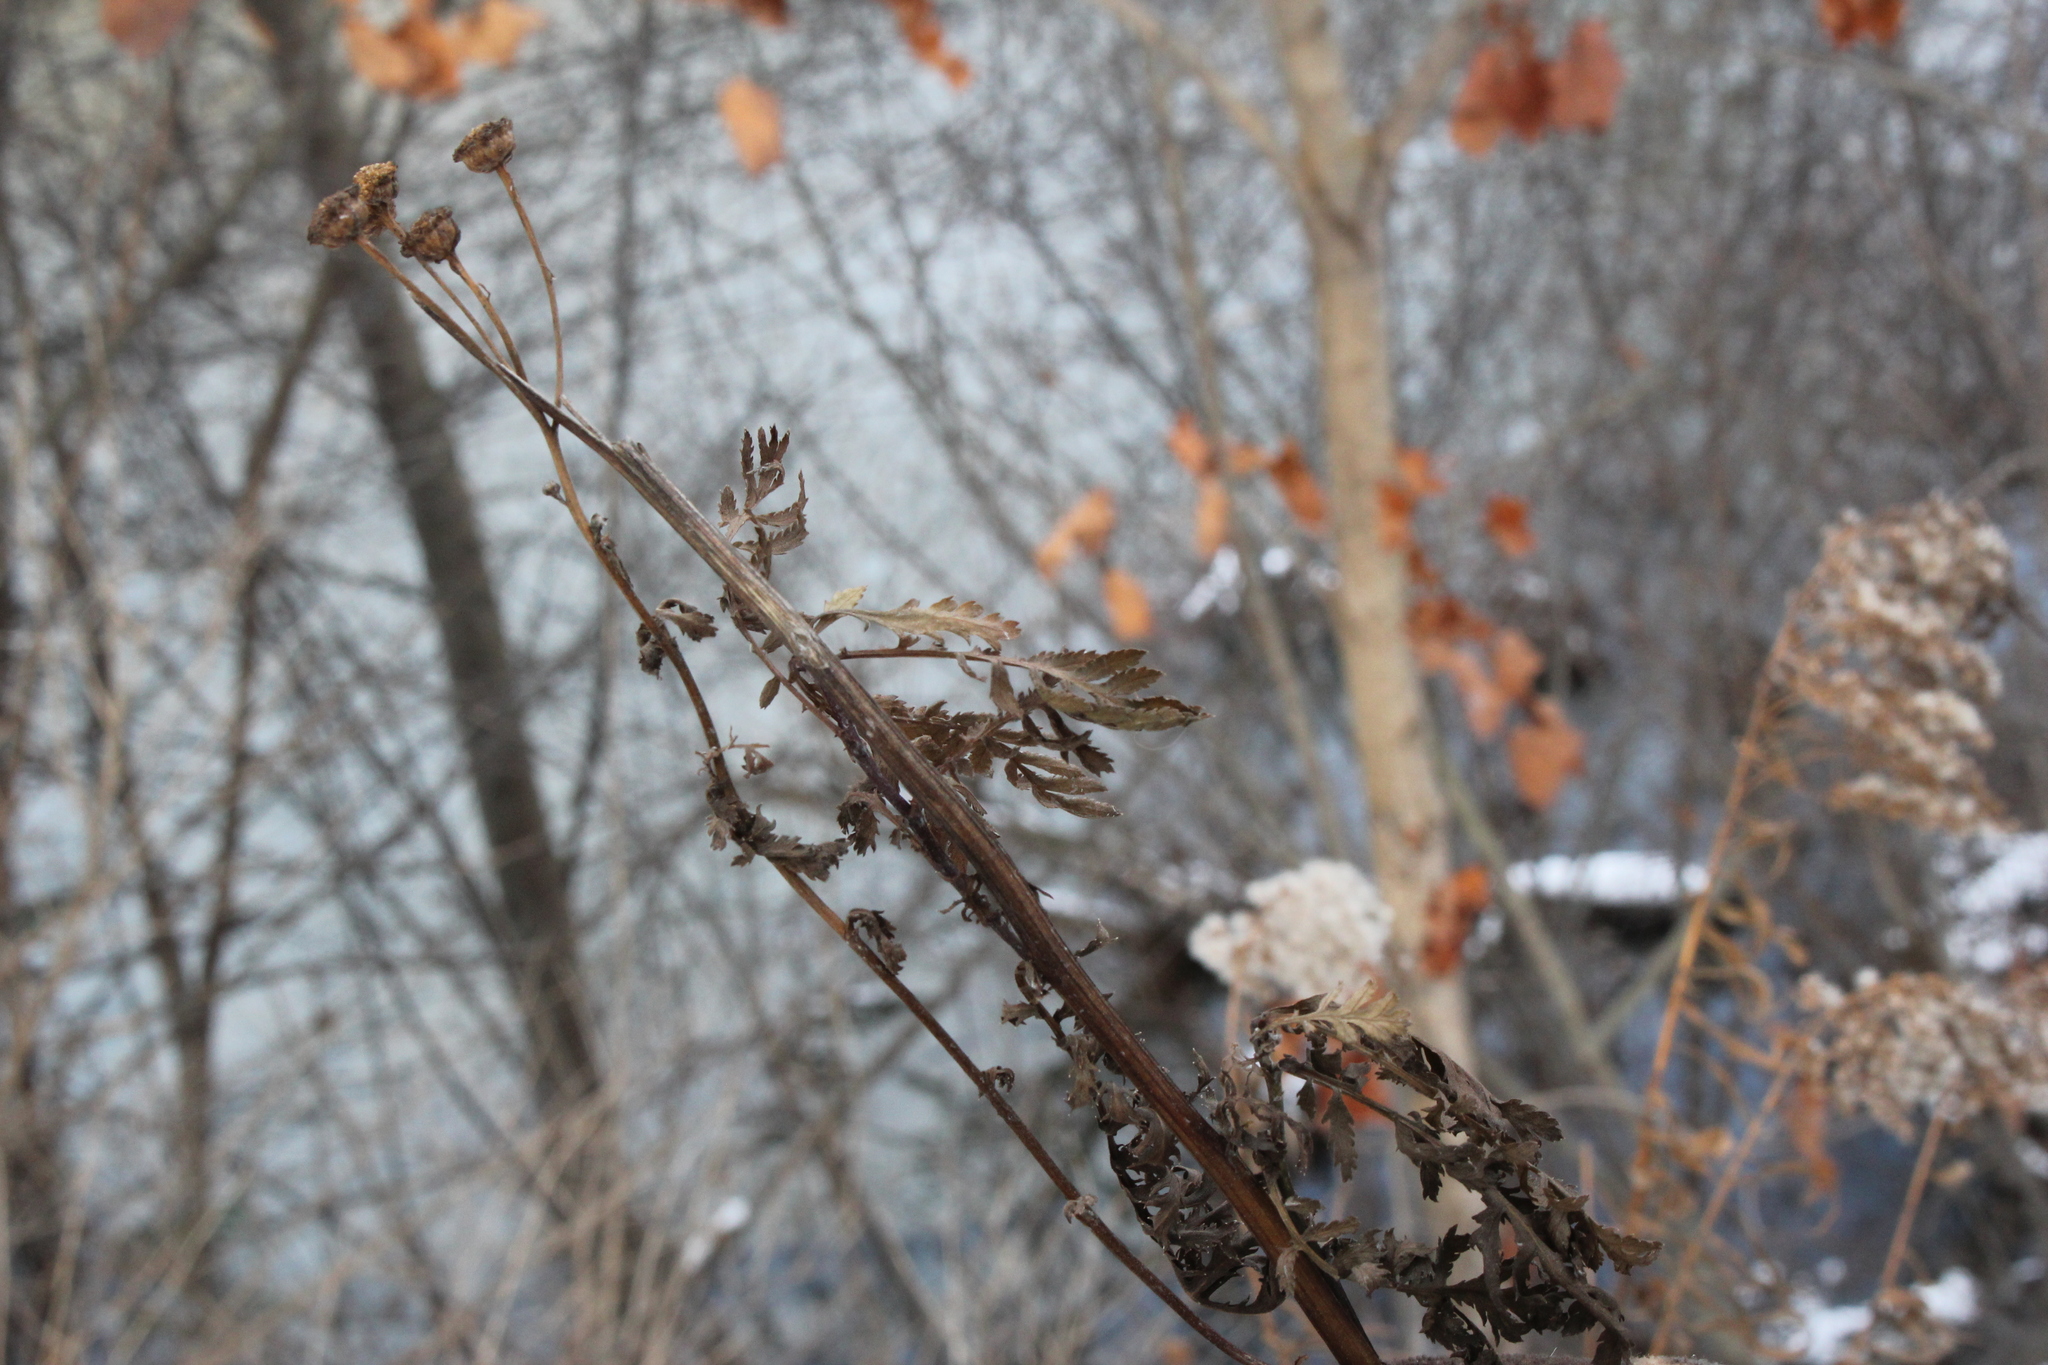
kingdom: Plantae
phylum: Tracheophyta
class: Magnoliopsida
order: Asterales
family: Asteraceae
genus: Tanacetum
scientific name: Tanacetum vulgare
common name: Common tansy
